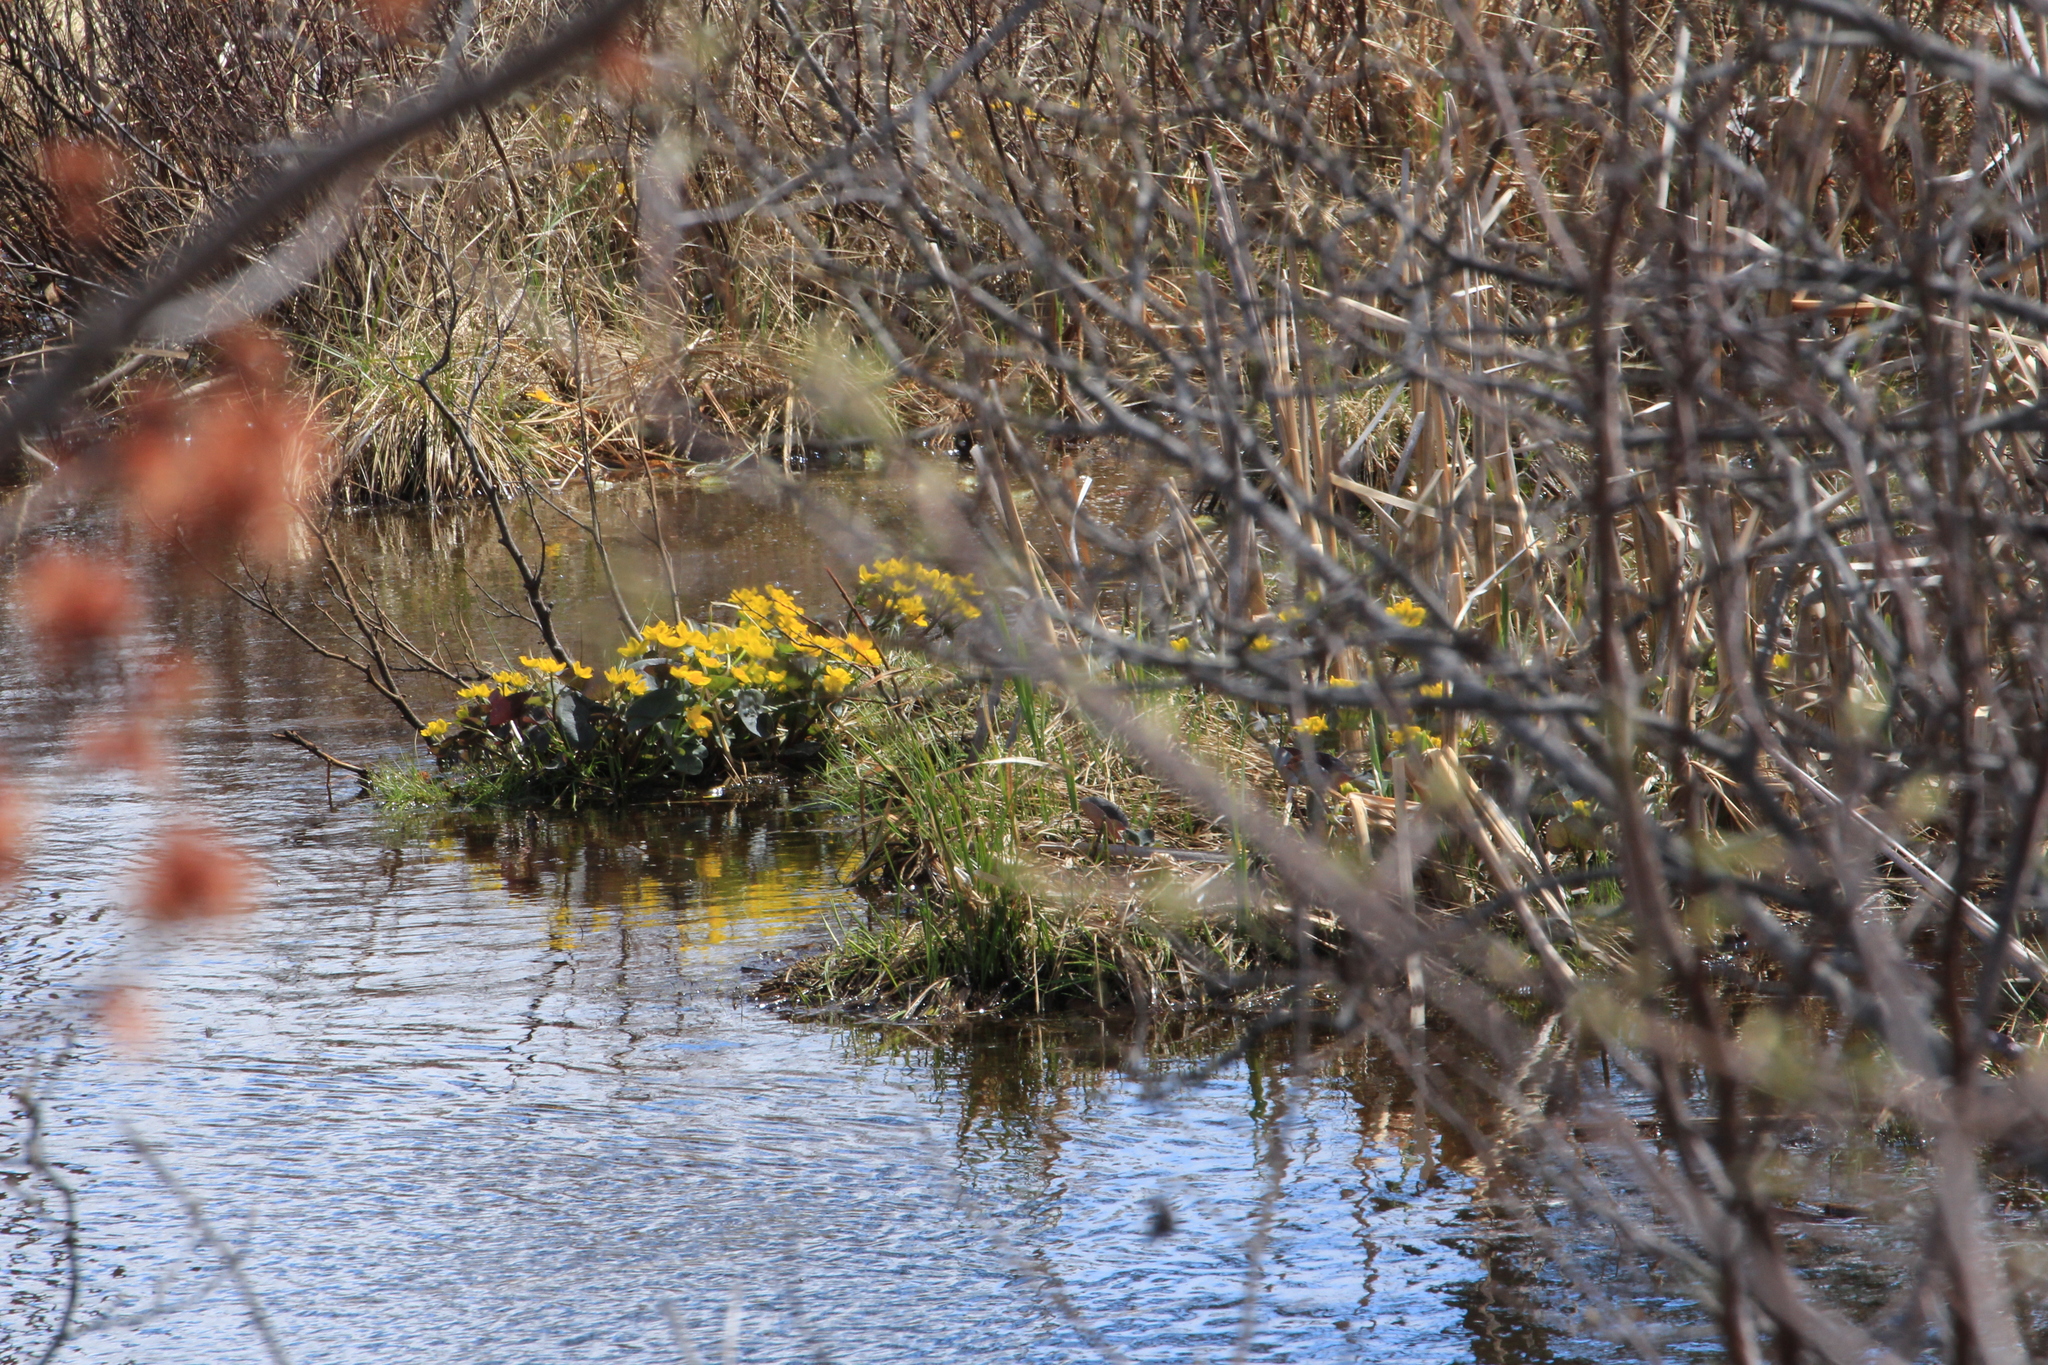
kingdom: Plantae
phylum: Tracheophyta
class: Magnoliopsida
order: Ranunculales
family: Ranunculaceae
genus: Caltha
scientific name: Caltha palustris
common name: Marsh marigold
